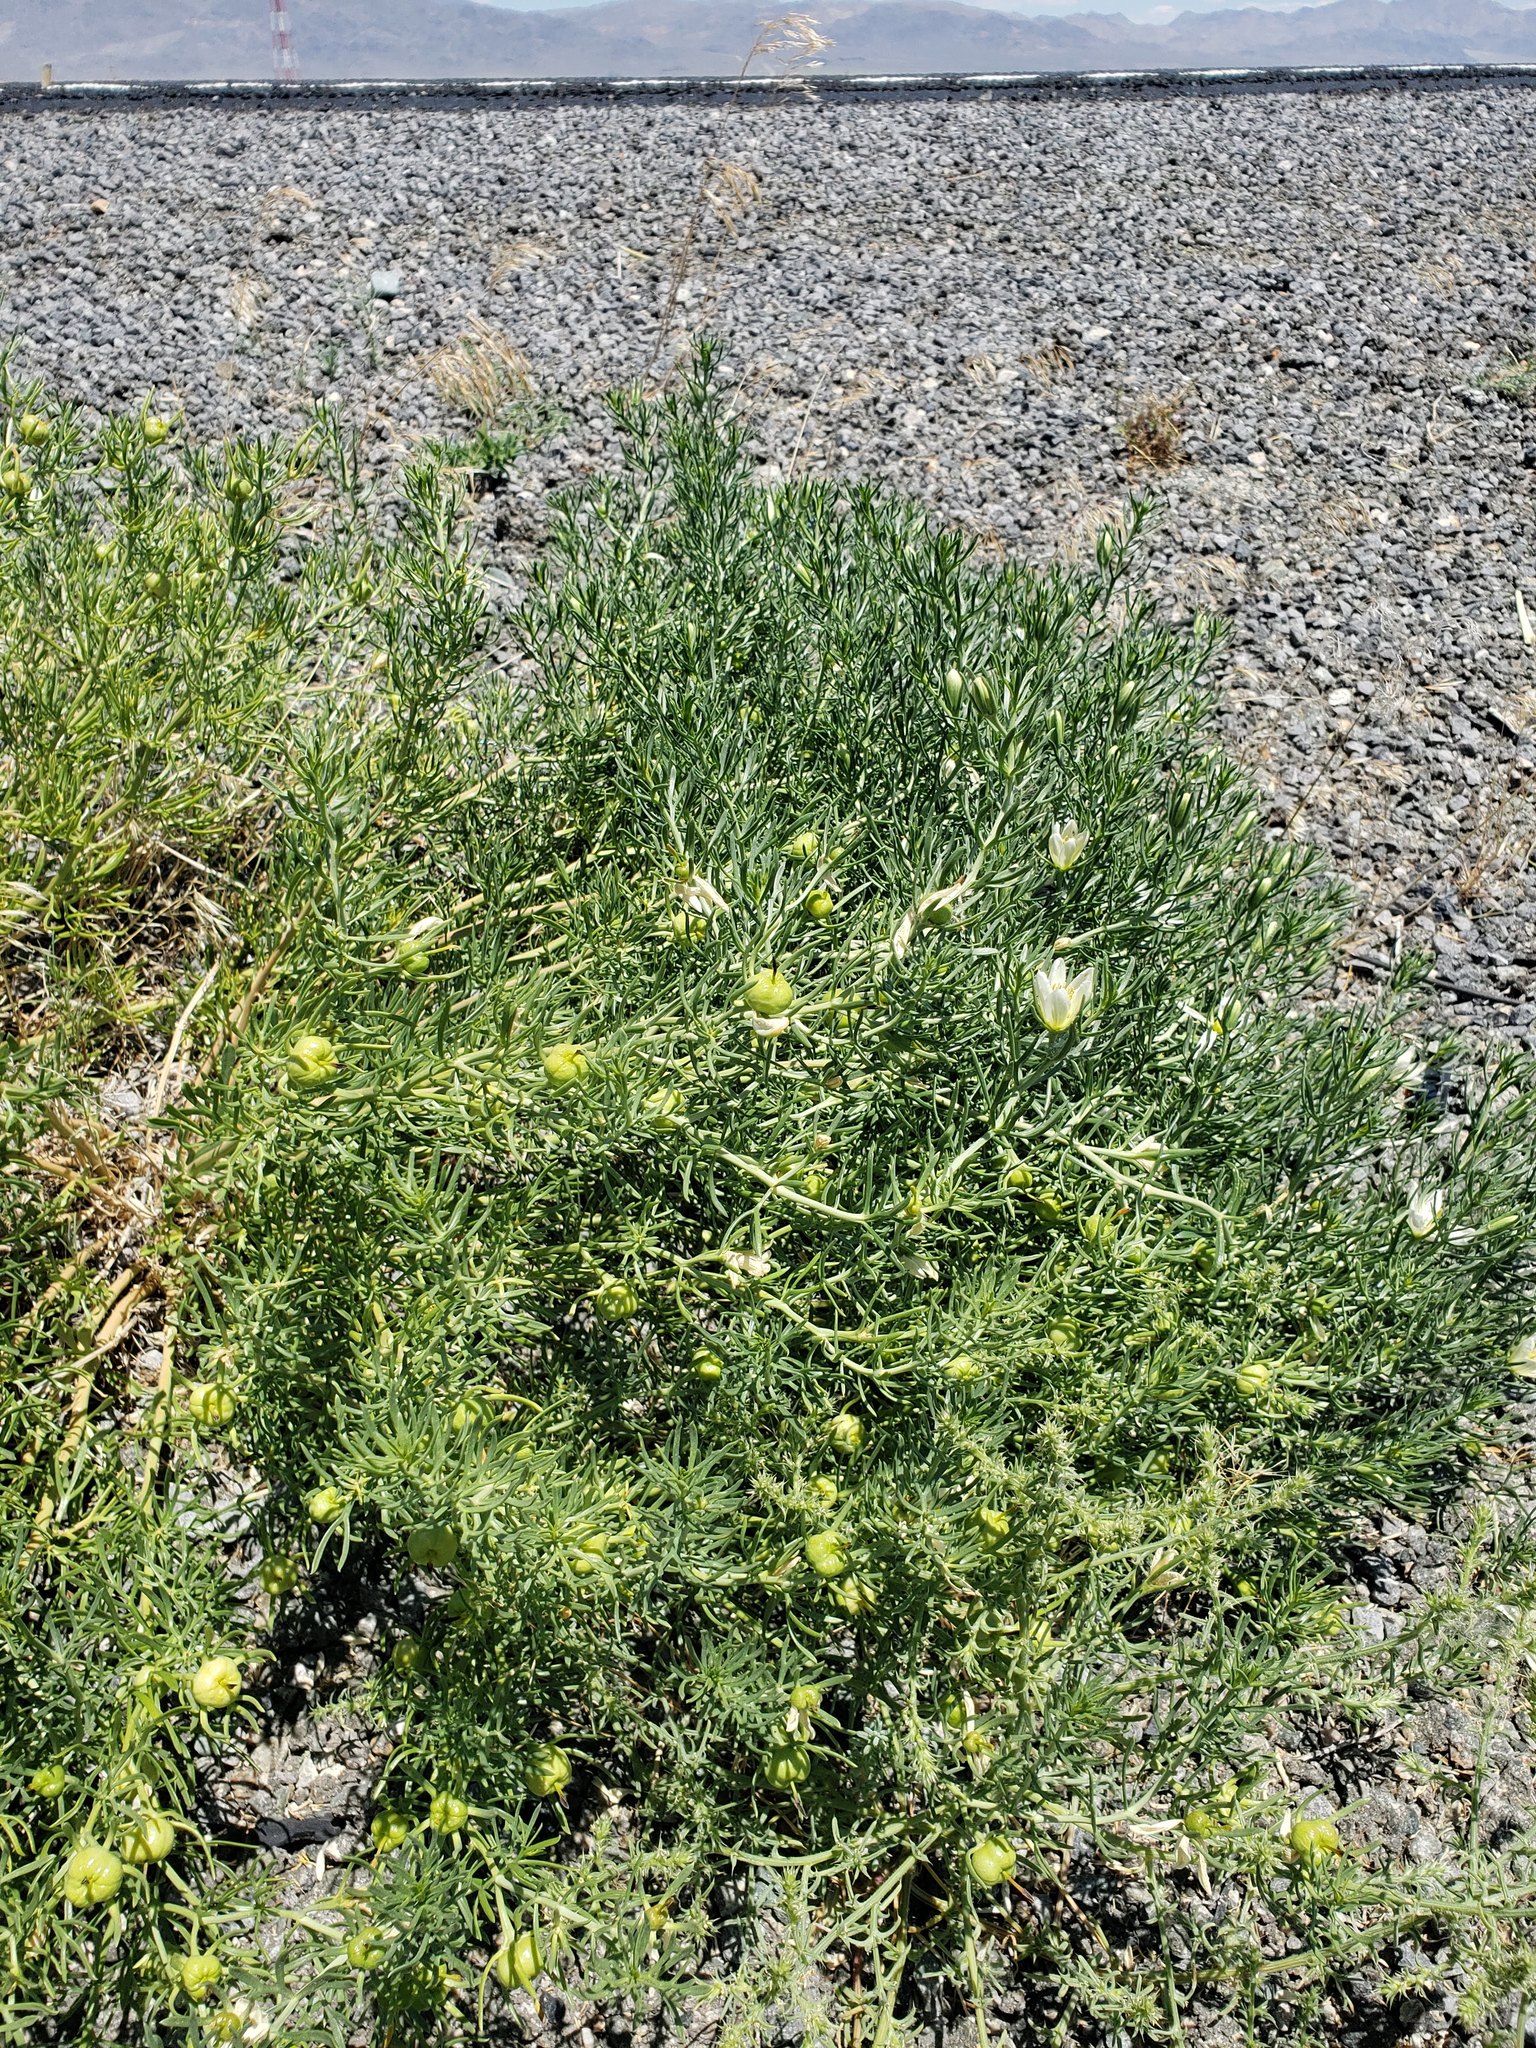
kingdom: Plantae
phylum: Tracheophyta
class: Magnoliopsida
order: Sapindales
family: Tetradiclidaceae
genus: Peganum
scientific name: Peganum harmala
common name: Harmal peganum
